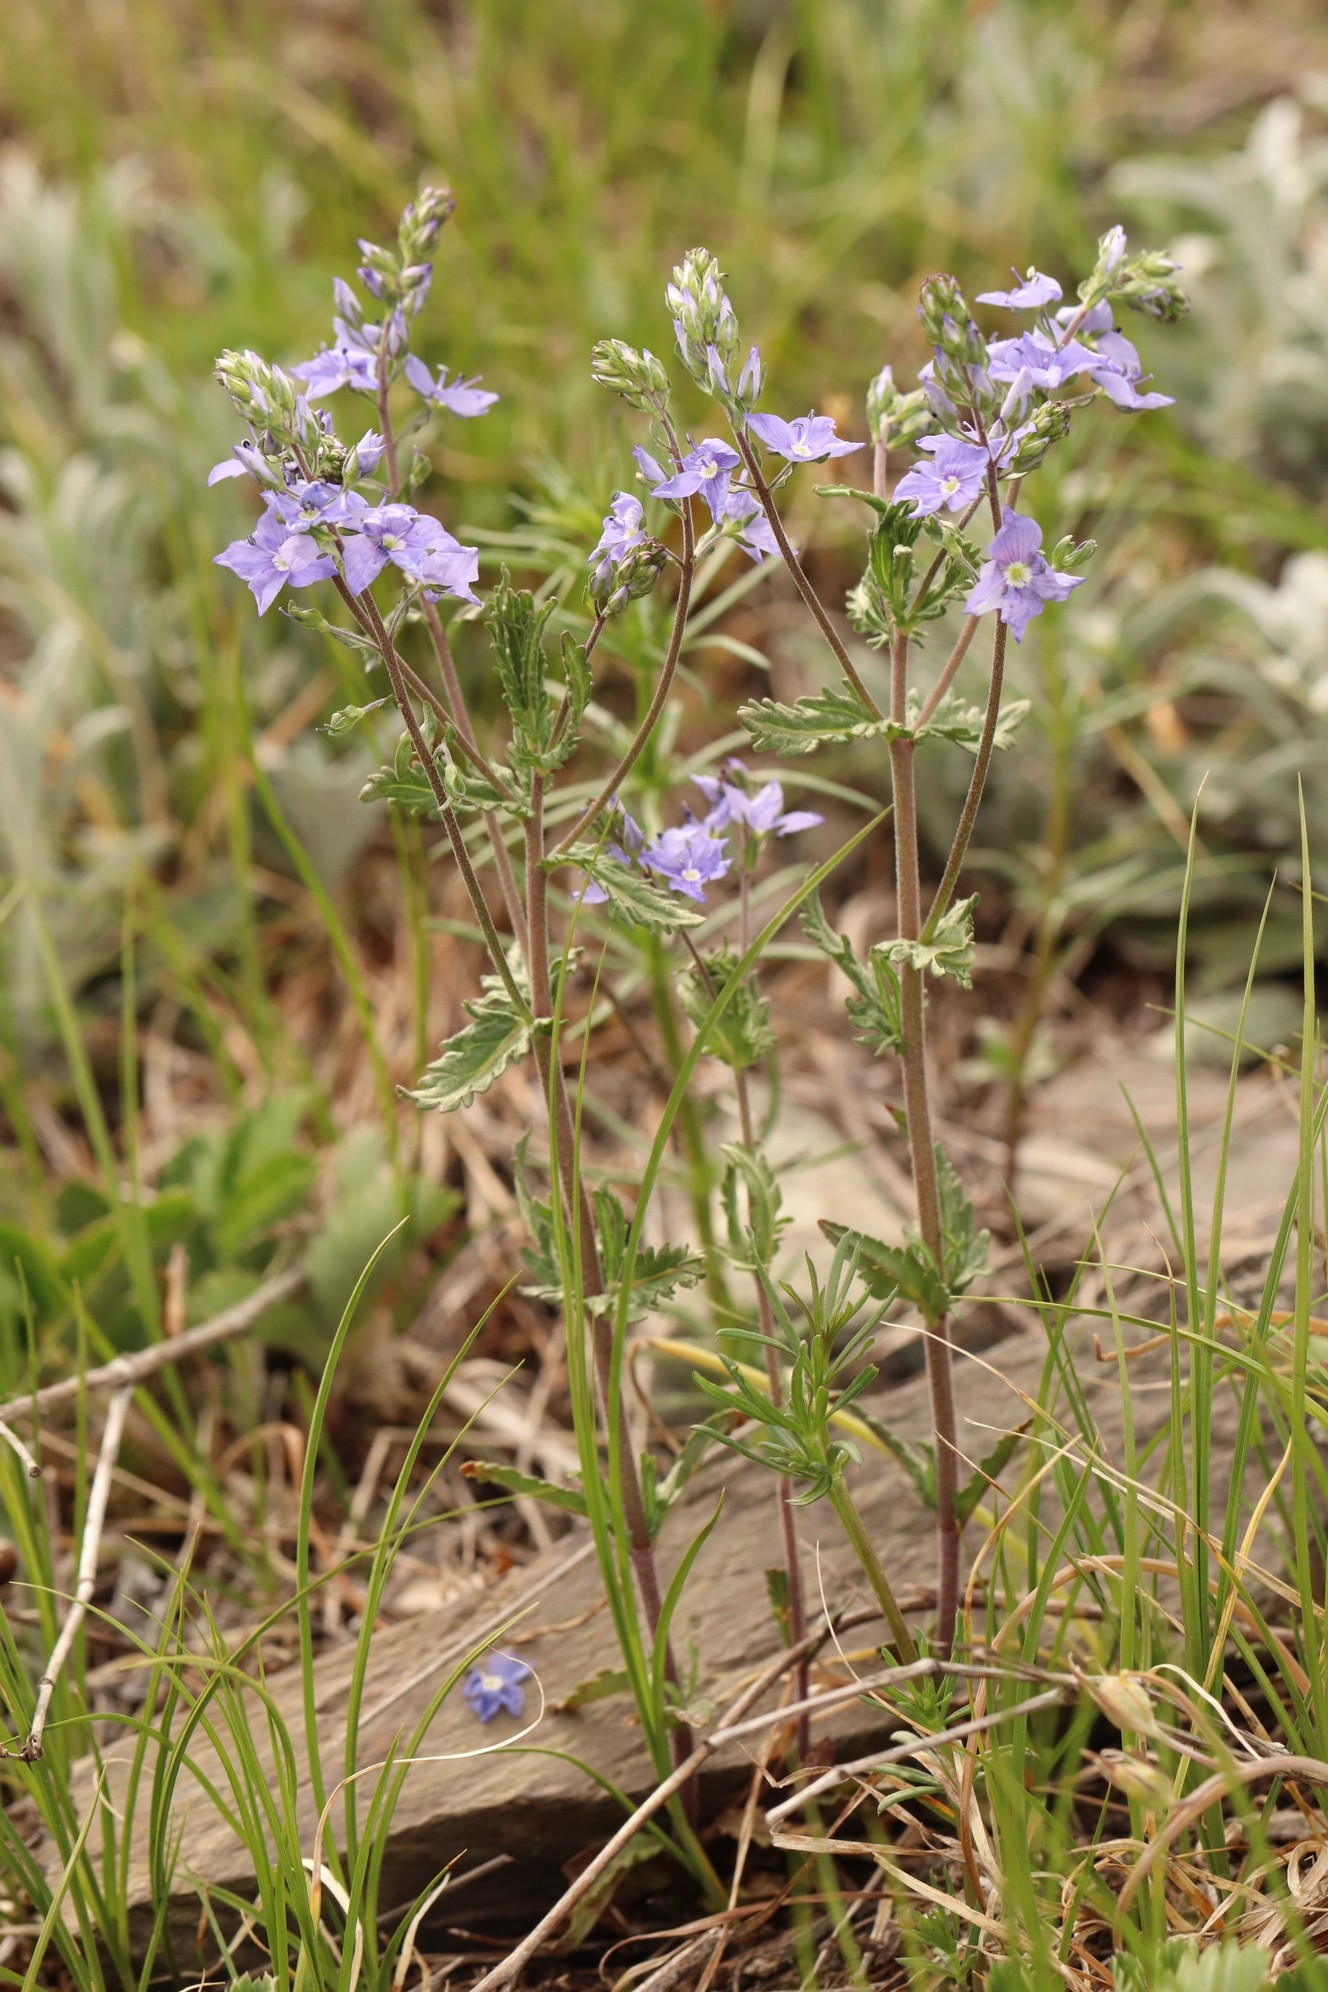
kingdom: Plantae
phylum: Tracheophyta
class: Magnoliopsida
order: Lamiales
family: Plantaginaceae
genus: Veronica
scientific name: Veronica krylovii
